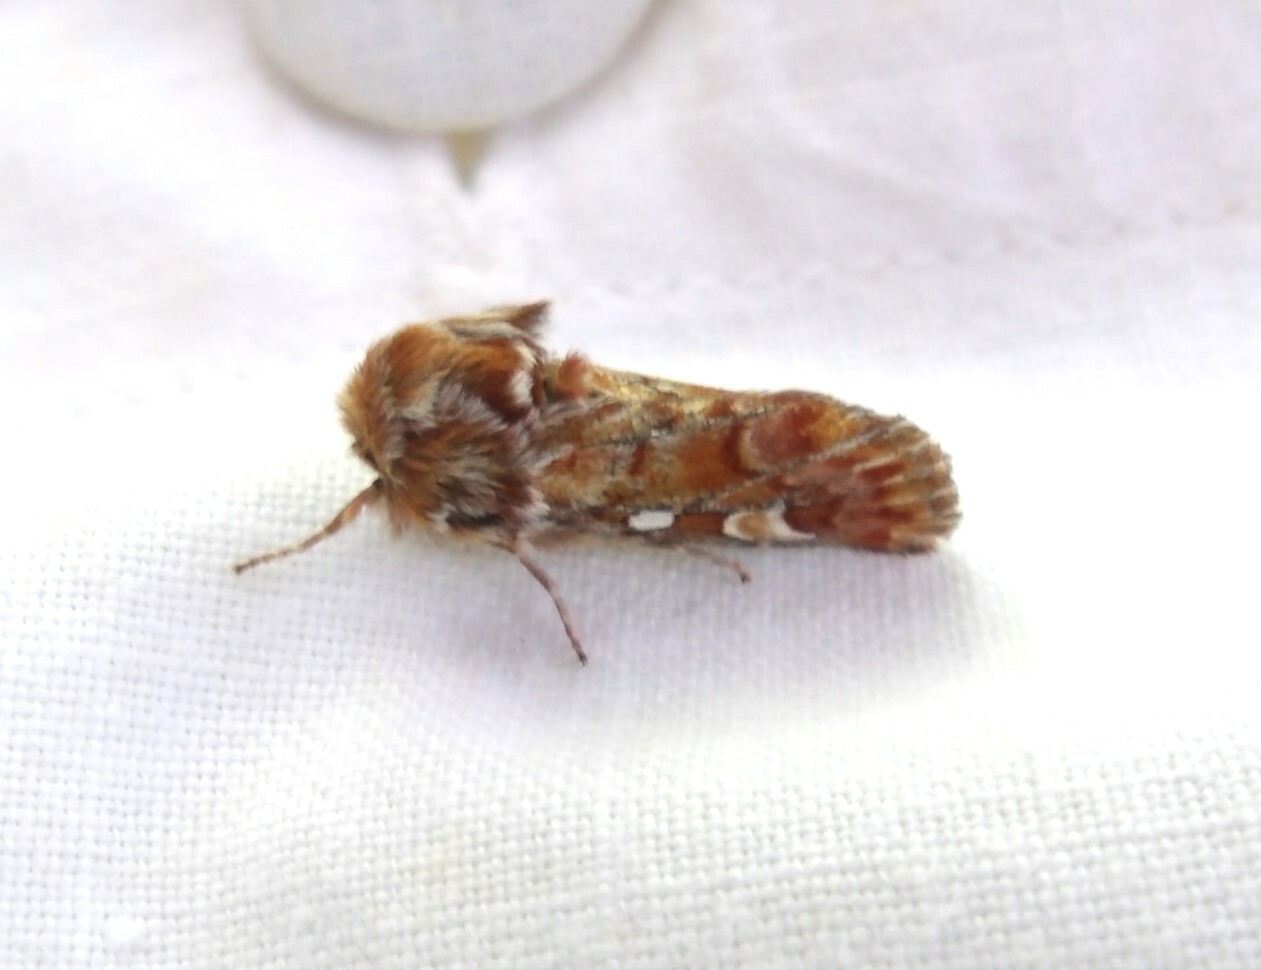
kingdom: Animalia
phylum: Arthropoda
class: Insecta
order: Lepidoptera
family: Noctuidae
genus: Panolis
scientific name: Panolis flammea
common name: Pine beauty
